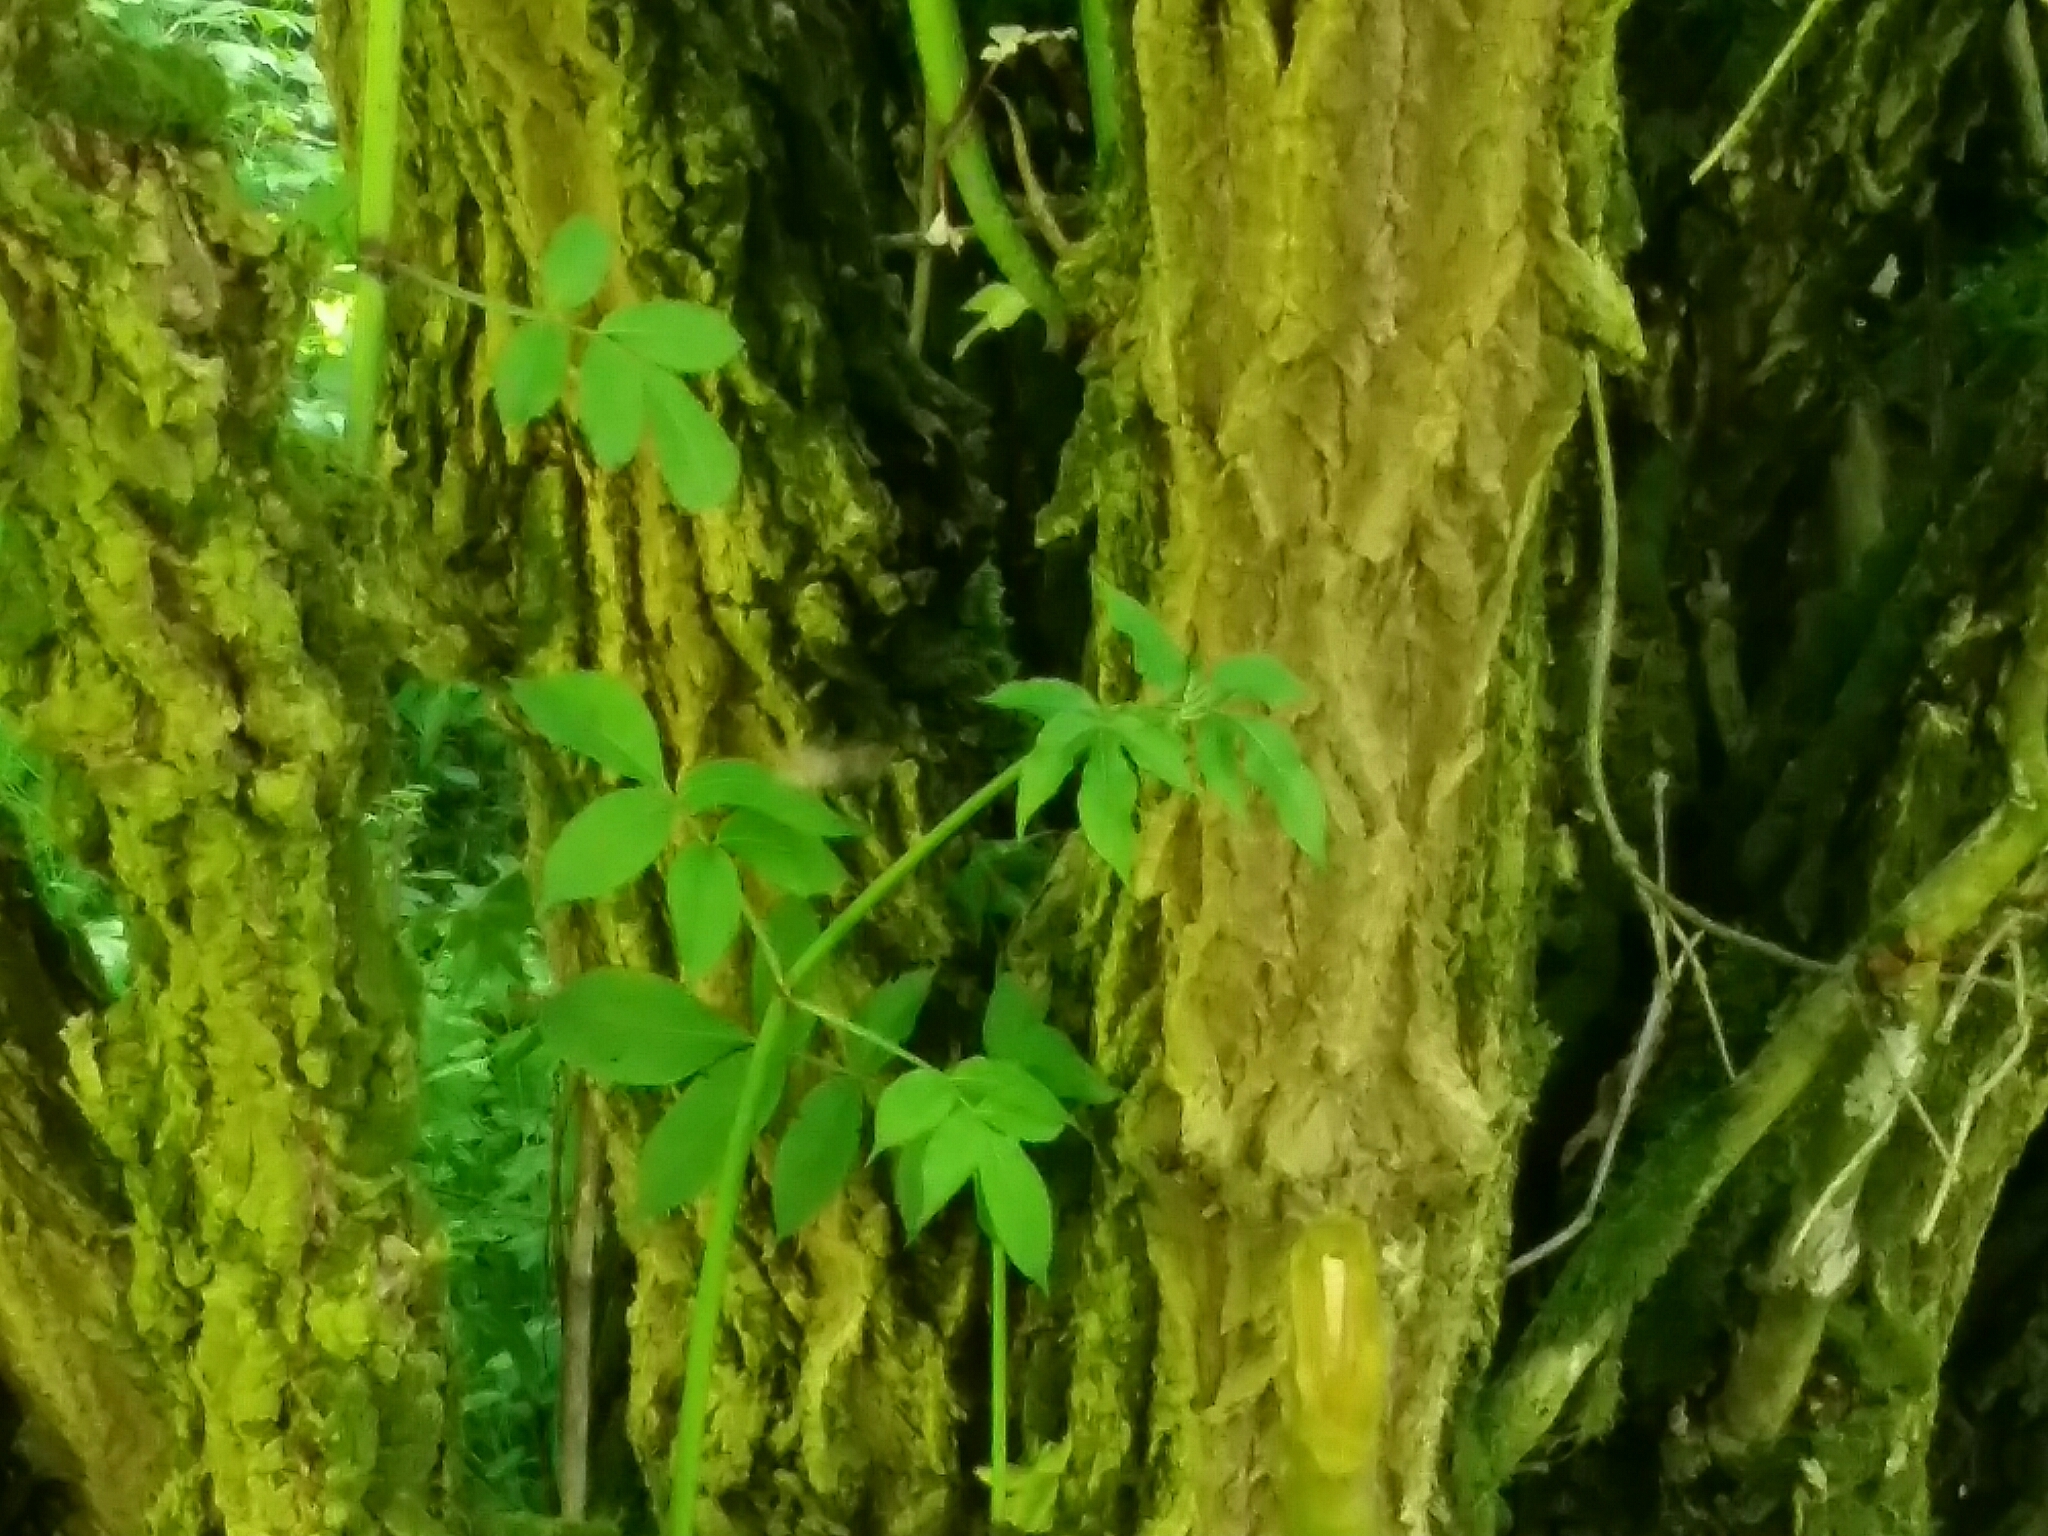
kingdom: Plantae
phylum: Tracheophyta
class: Magnoliopsida
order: Dipsacales
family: Viburnaceae
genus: Sambucus
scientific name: Sambucus nigra
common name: Elder
